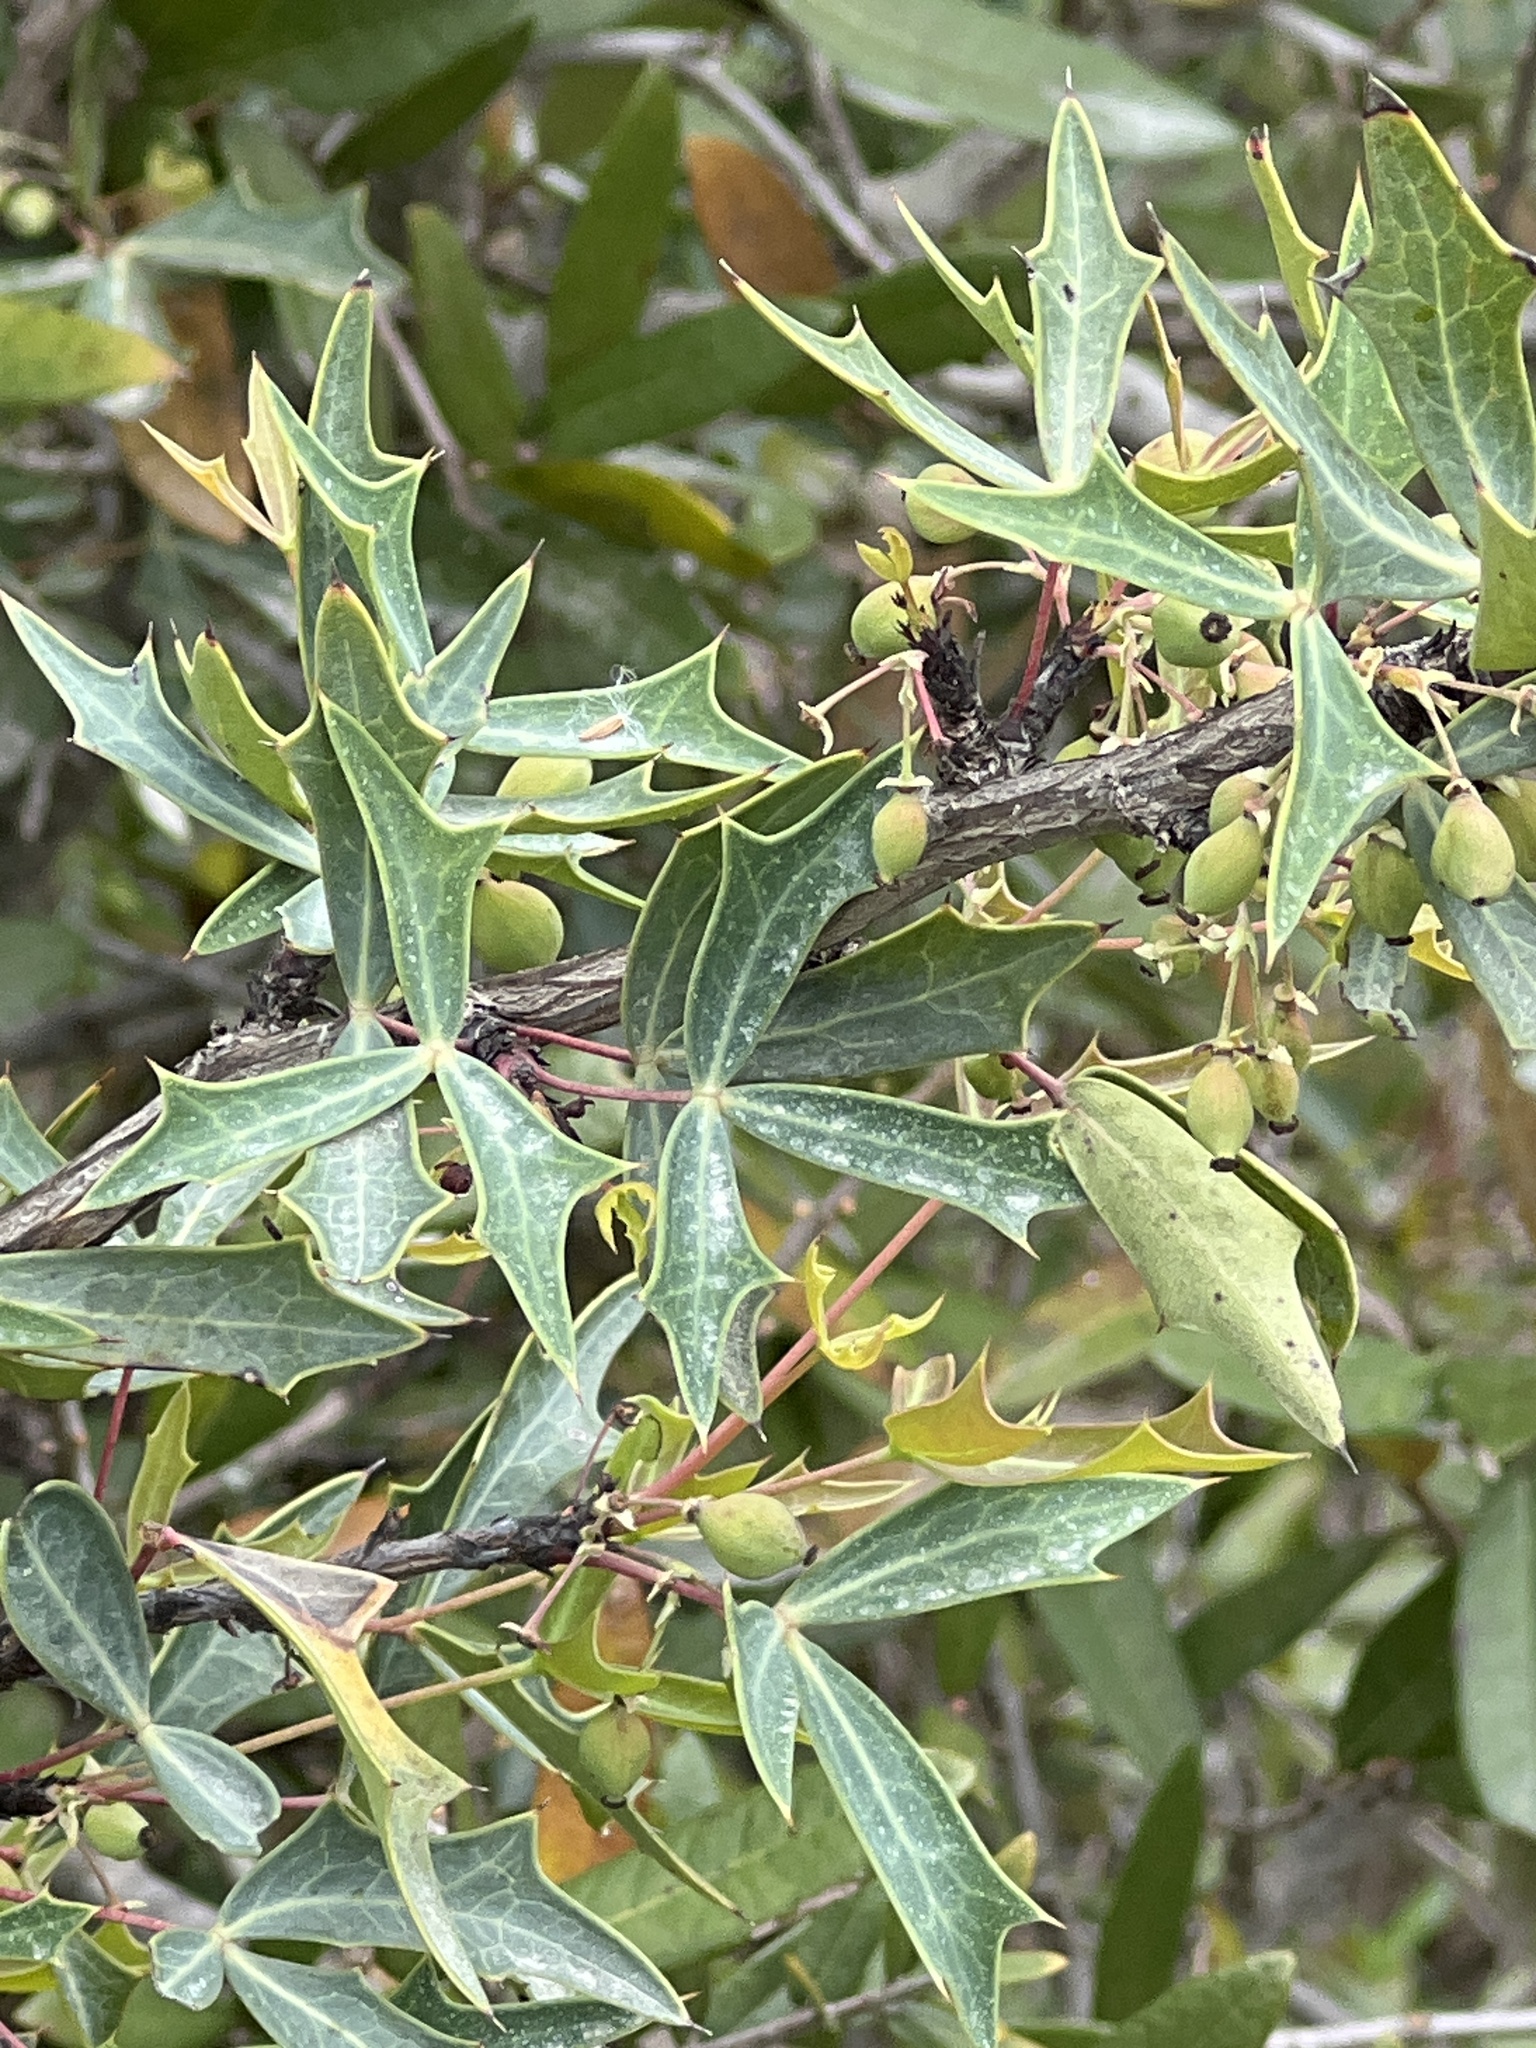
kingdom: Plantae
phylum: Tracheophyta
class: Magnoliopsida
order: Ranunculales
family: Berberidaceae
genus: Alloberberis
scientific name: Alloberberis trifoliolata
